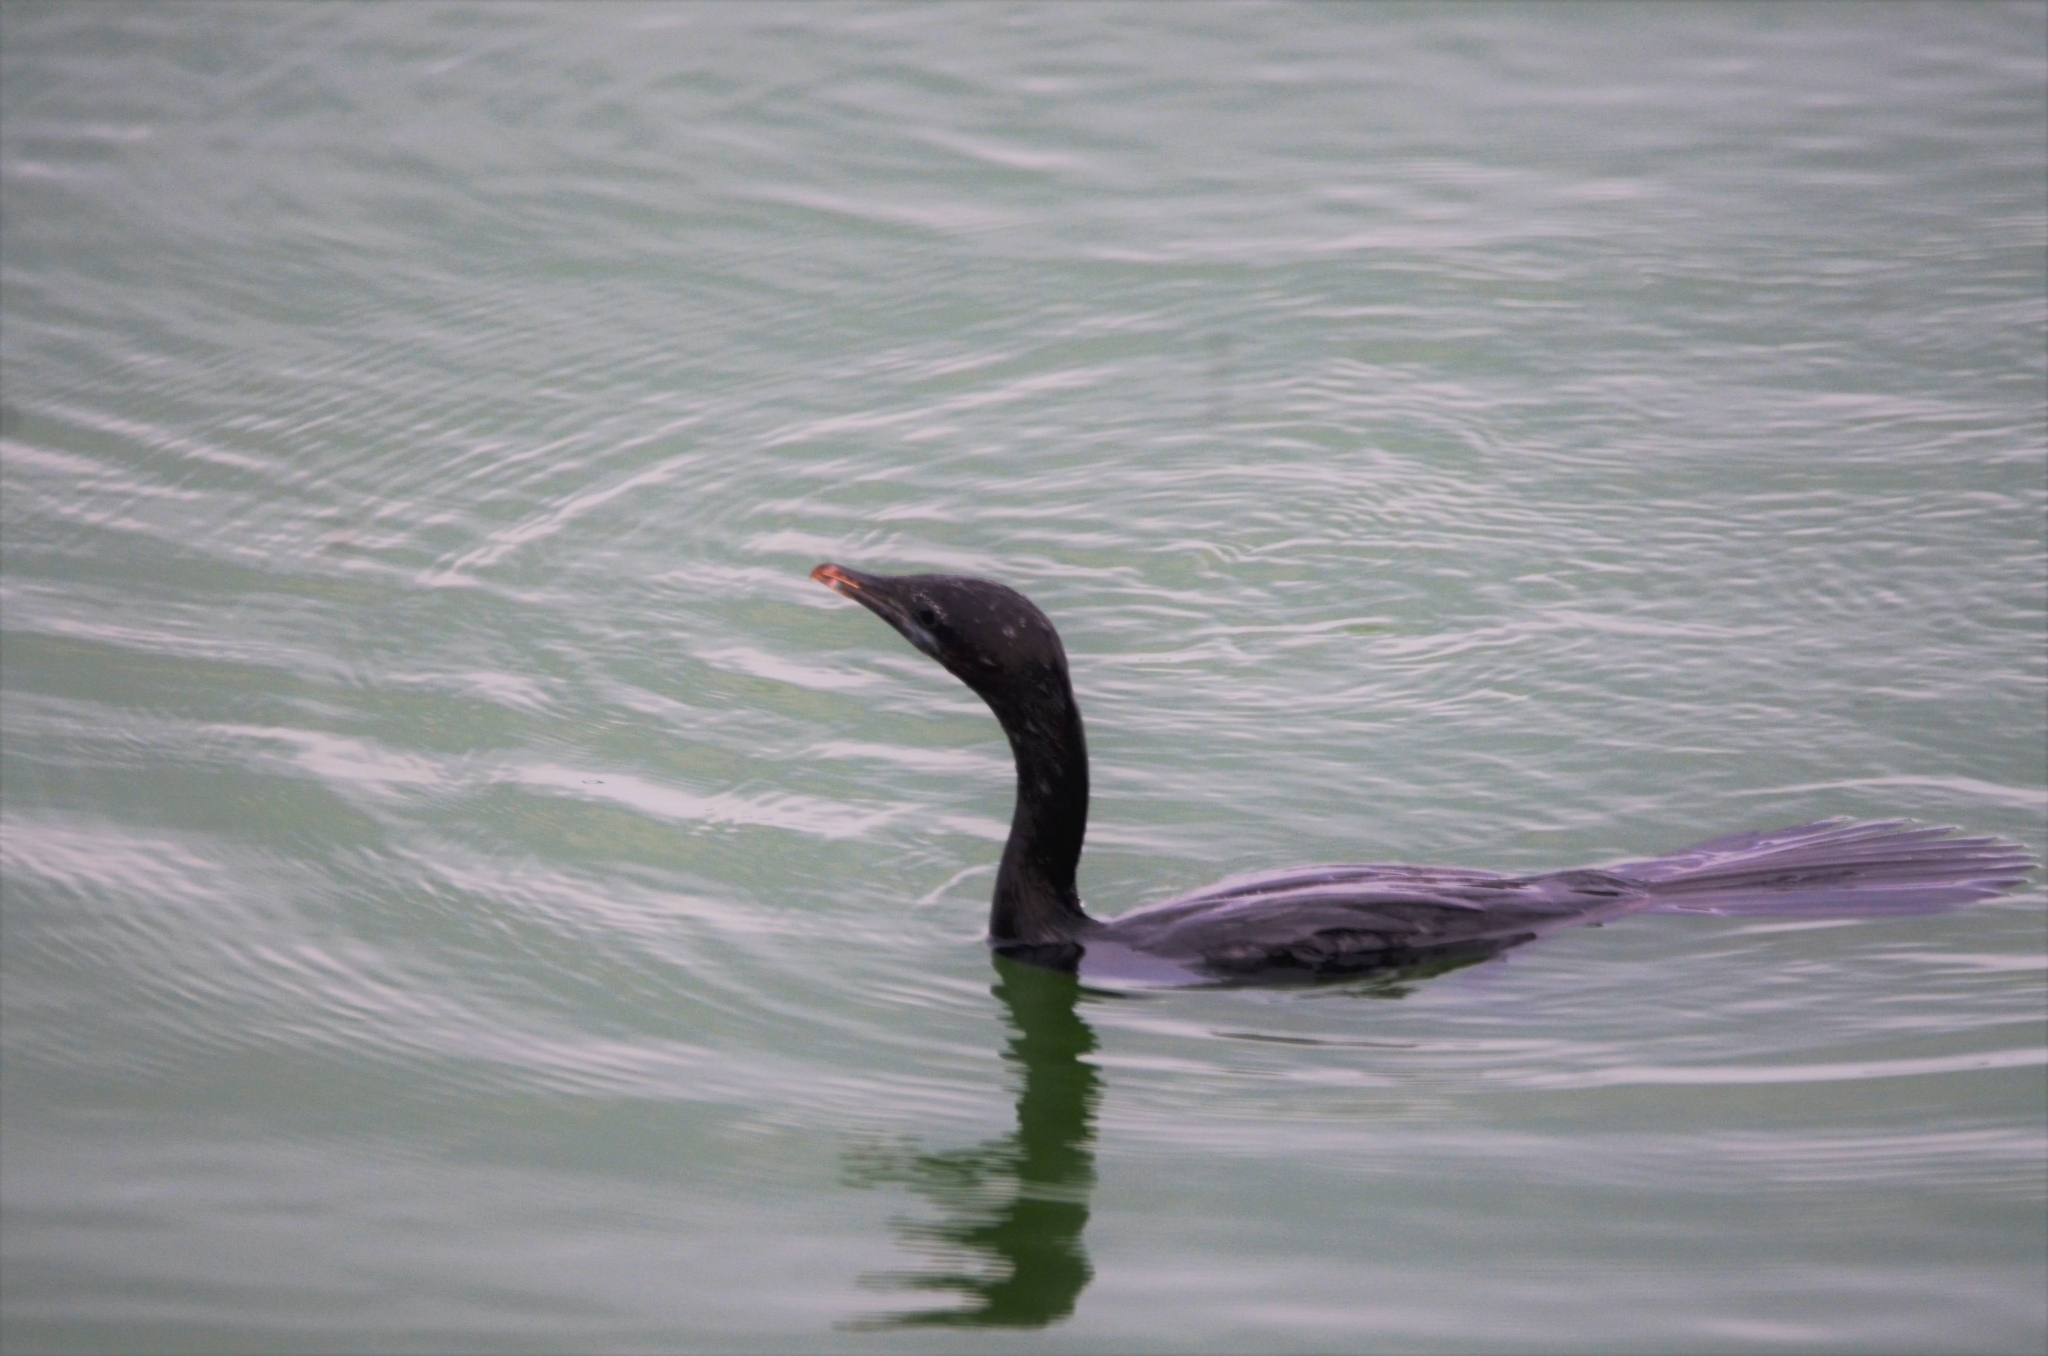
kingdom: Animalia
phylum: Chordata
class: Aves
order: Suliformes
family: Phalacrocoracidae
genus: Microcarbo
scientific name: Microcarbo niger
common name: Little cormorant
